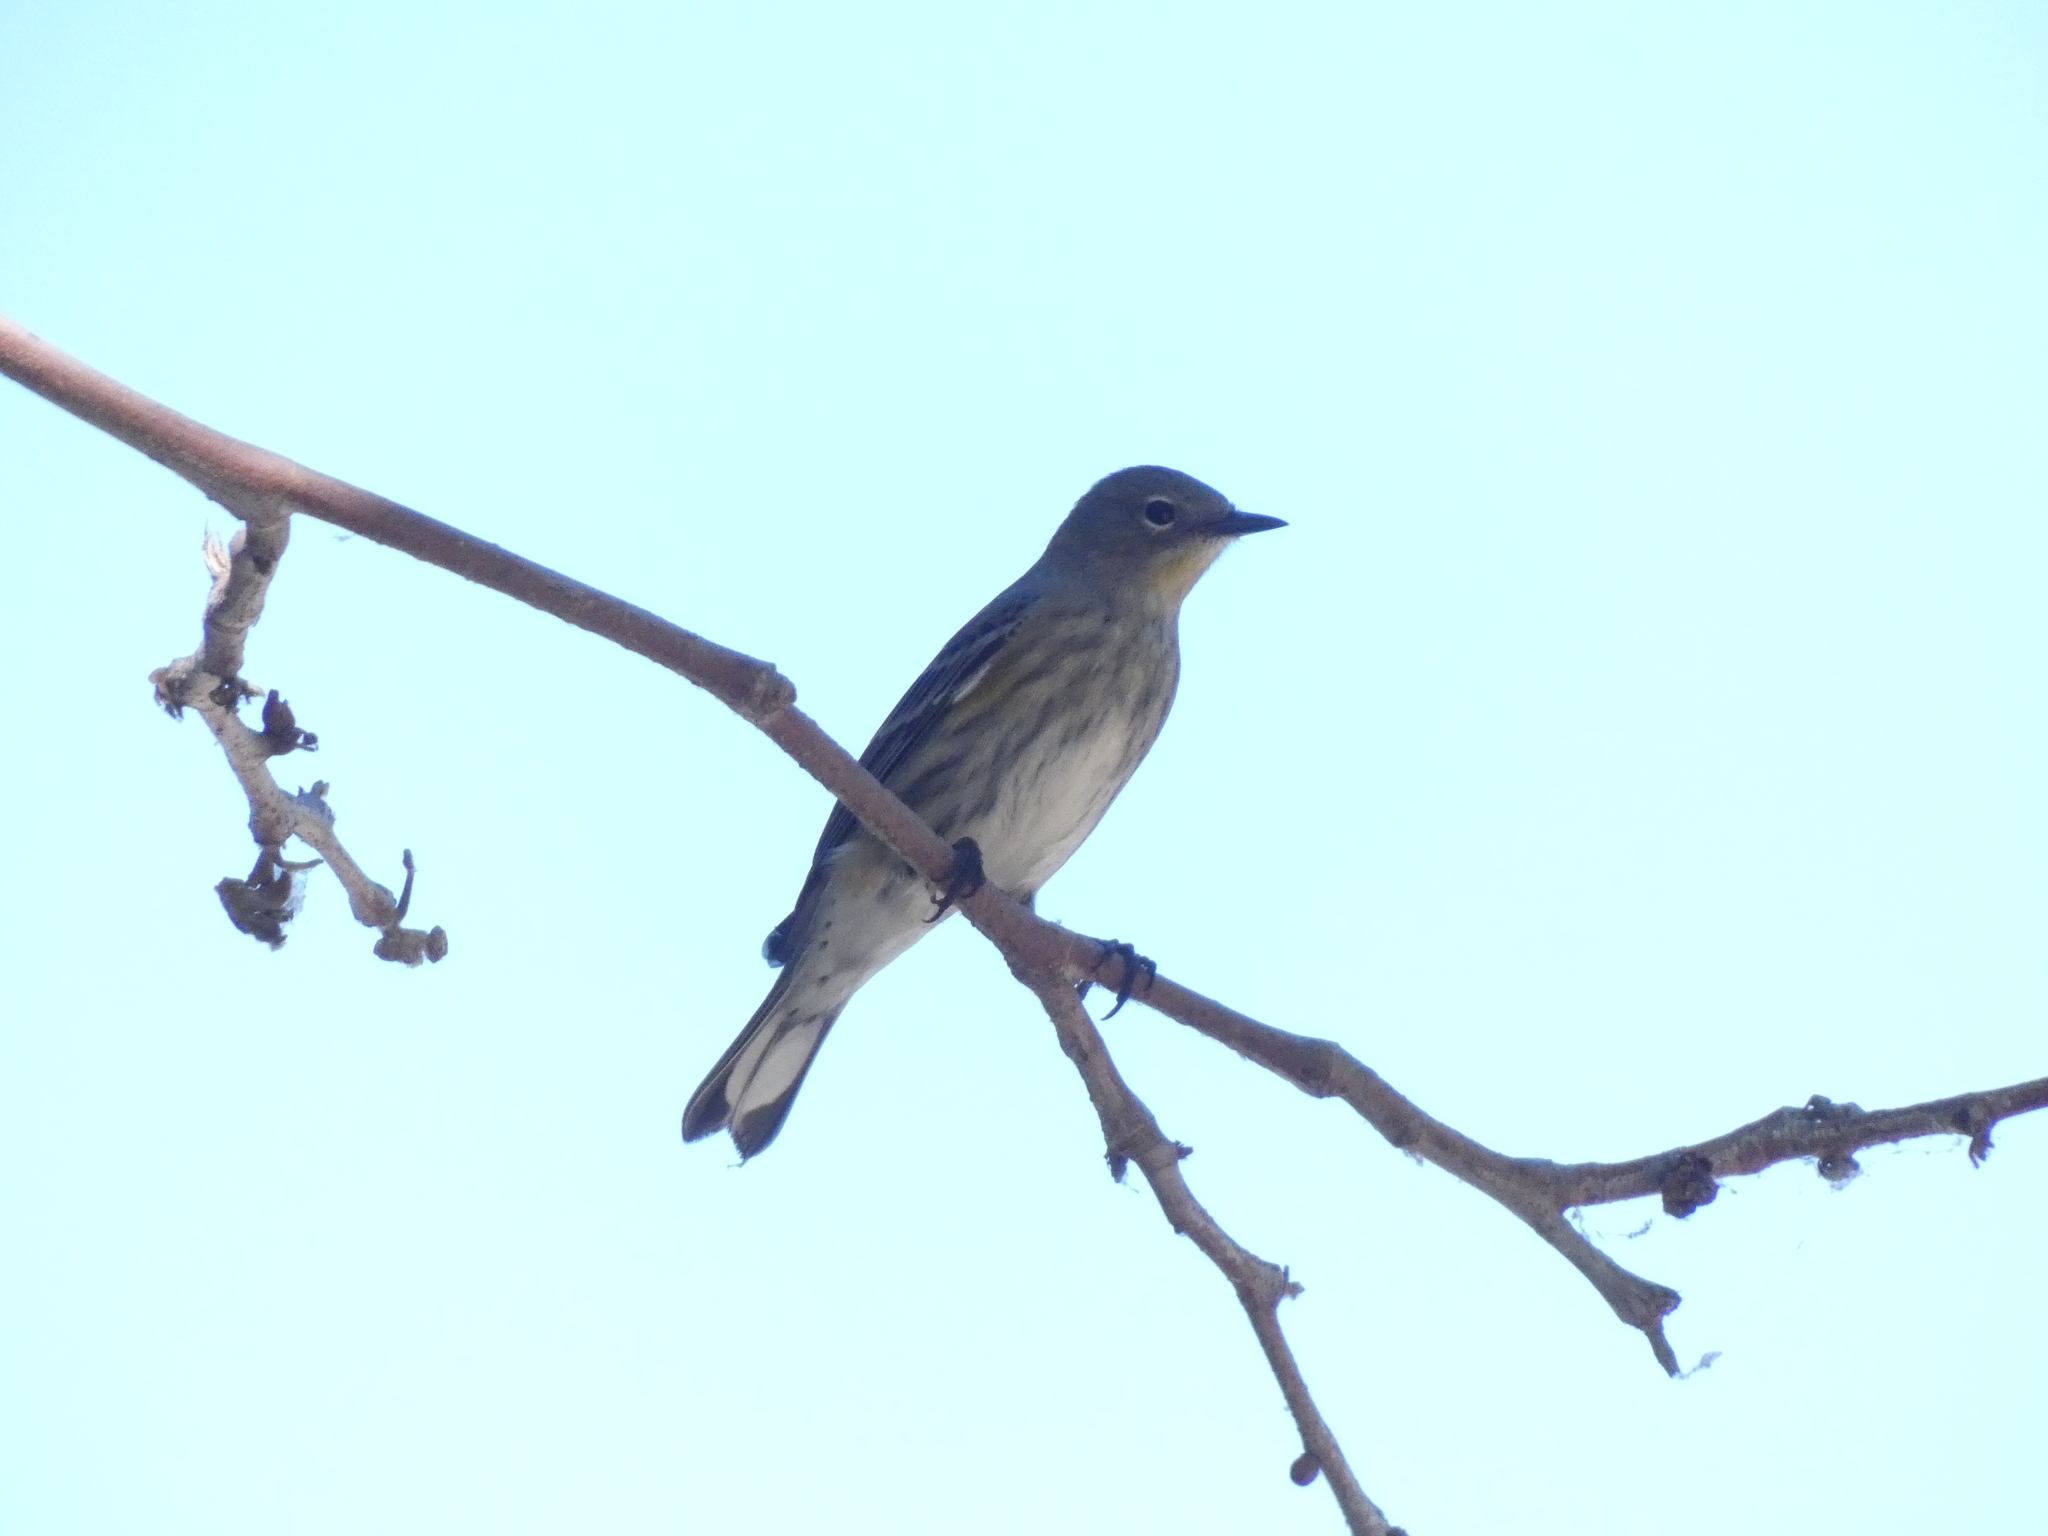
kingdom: Animalia
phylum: Chordata
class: Aves
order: Passeriformes
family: Parulidae
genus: Setophaga
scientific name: Setophaga coronata
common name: Myrtle warbler
